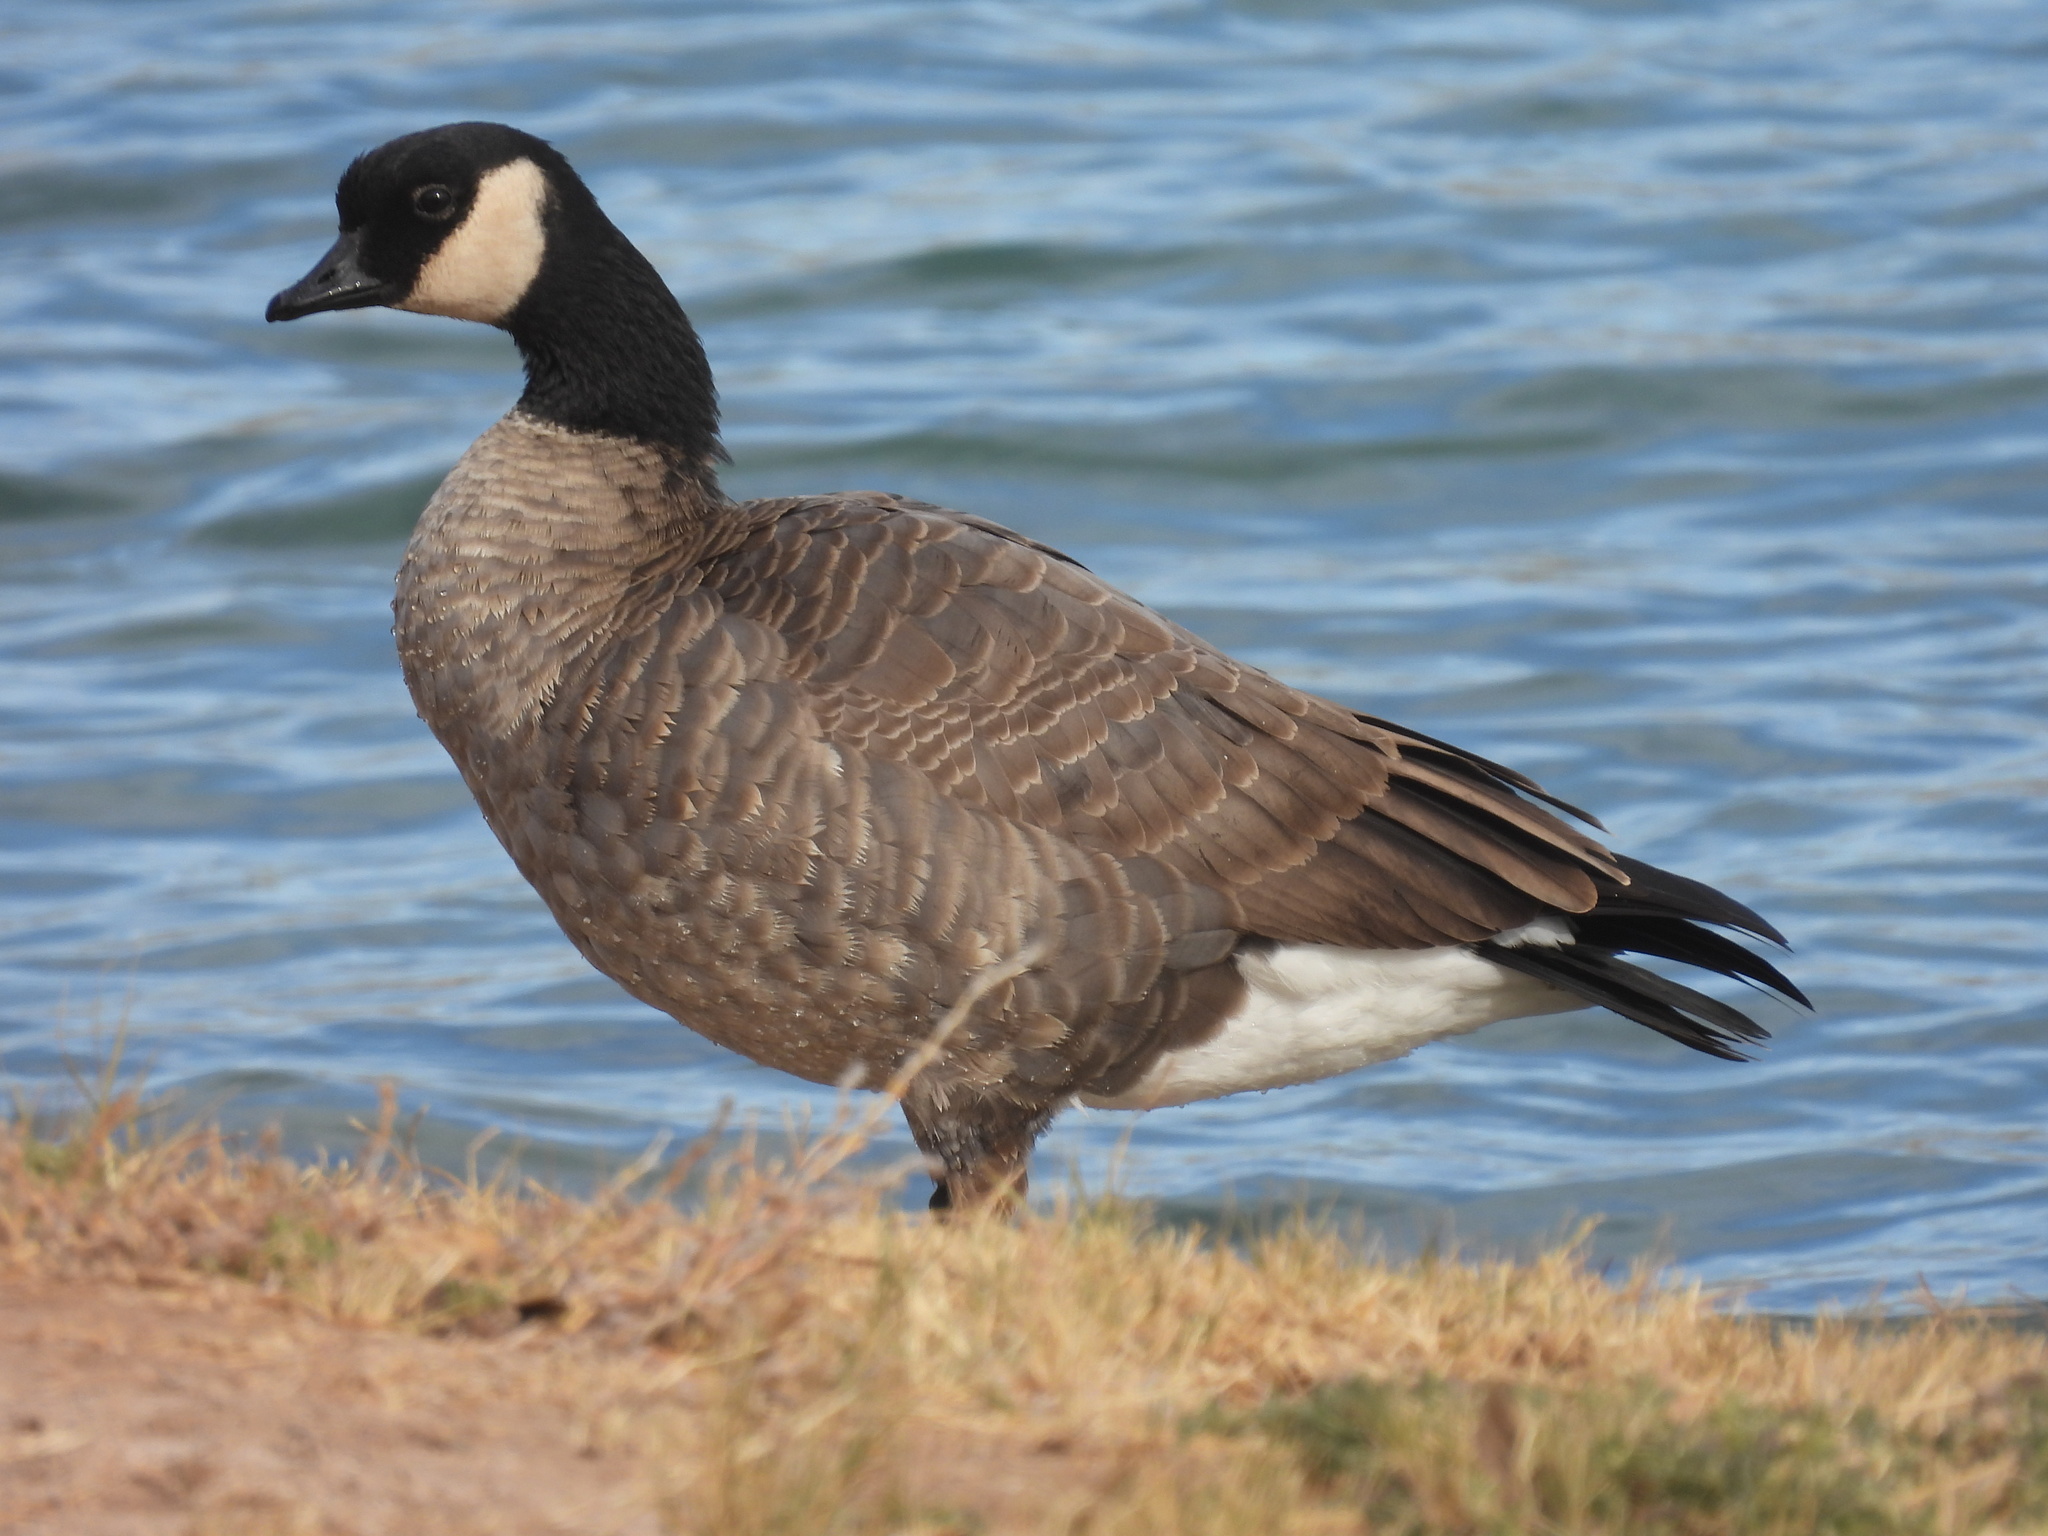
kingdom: Animalia
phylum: Chordata
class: Aves
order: Anseriformes
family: Anatidae
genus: Branta
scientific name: Branta hutchinsii
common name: Cackling goose
